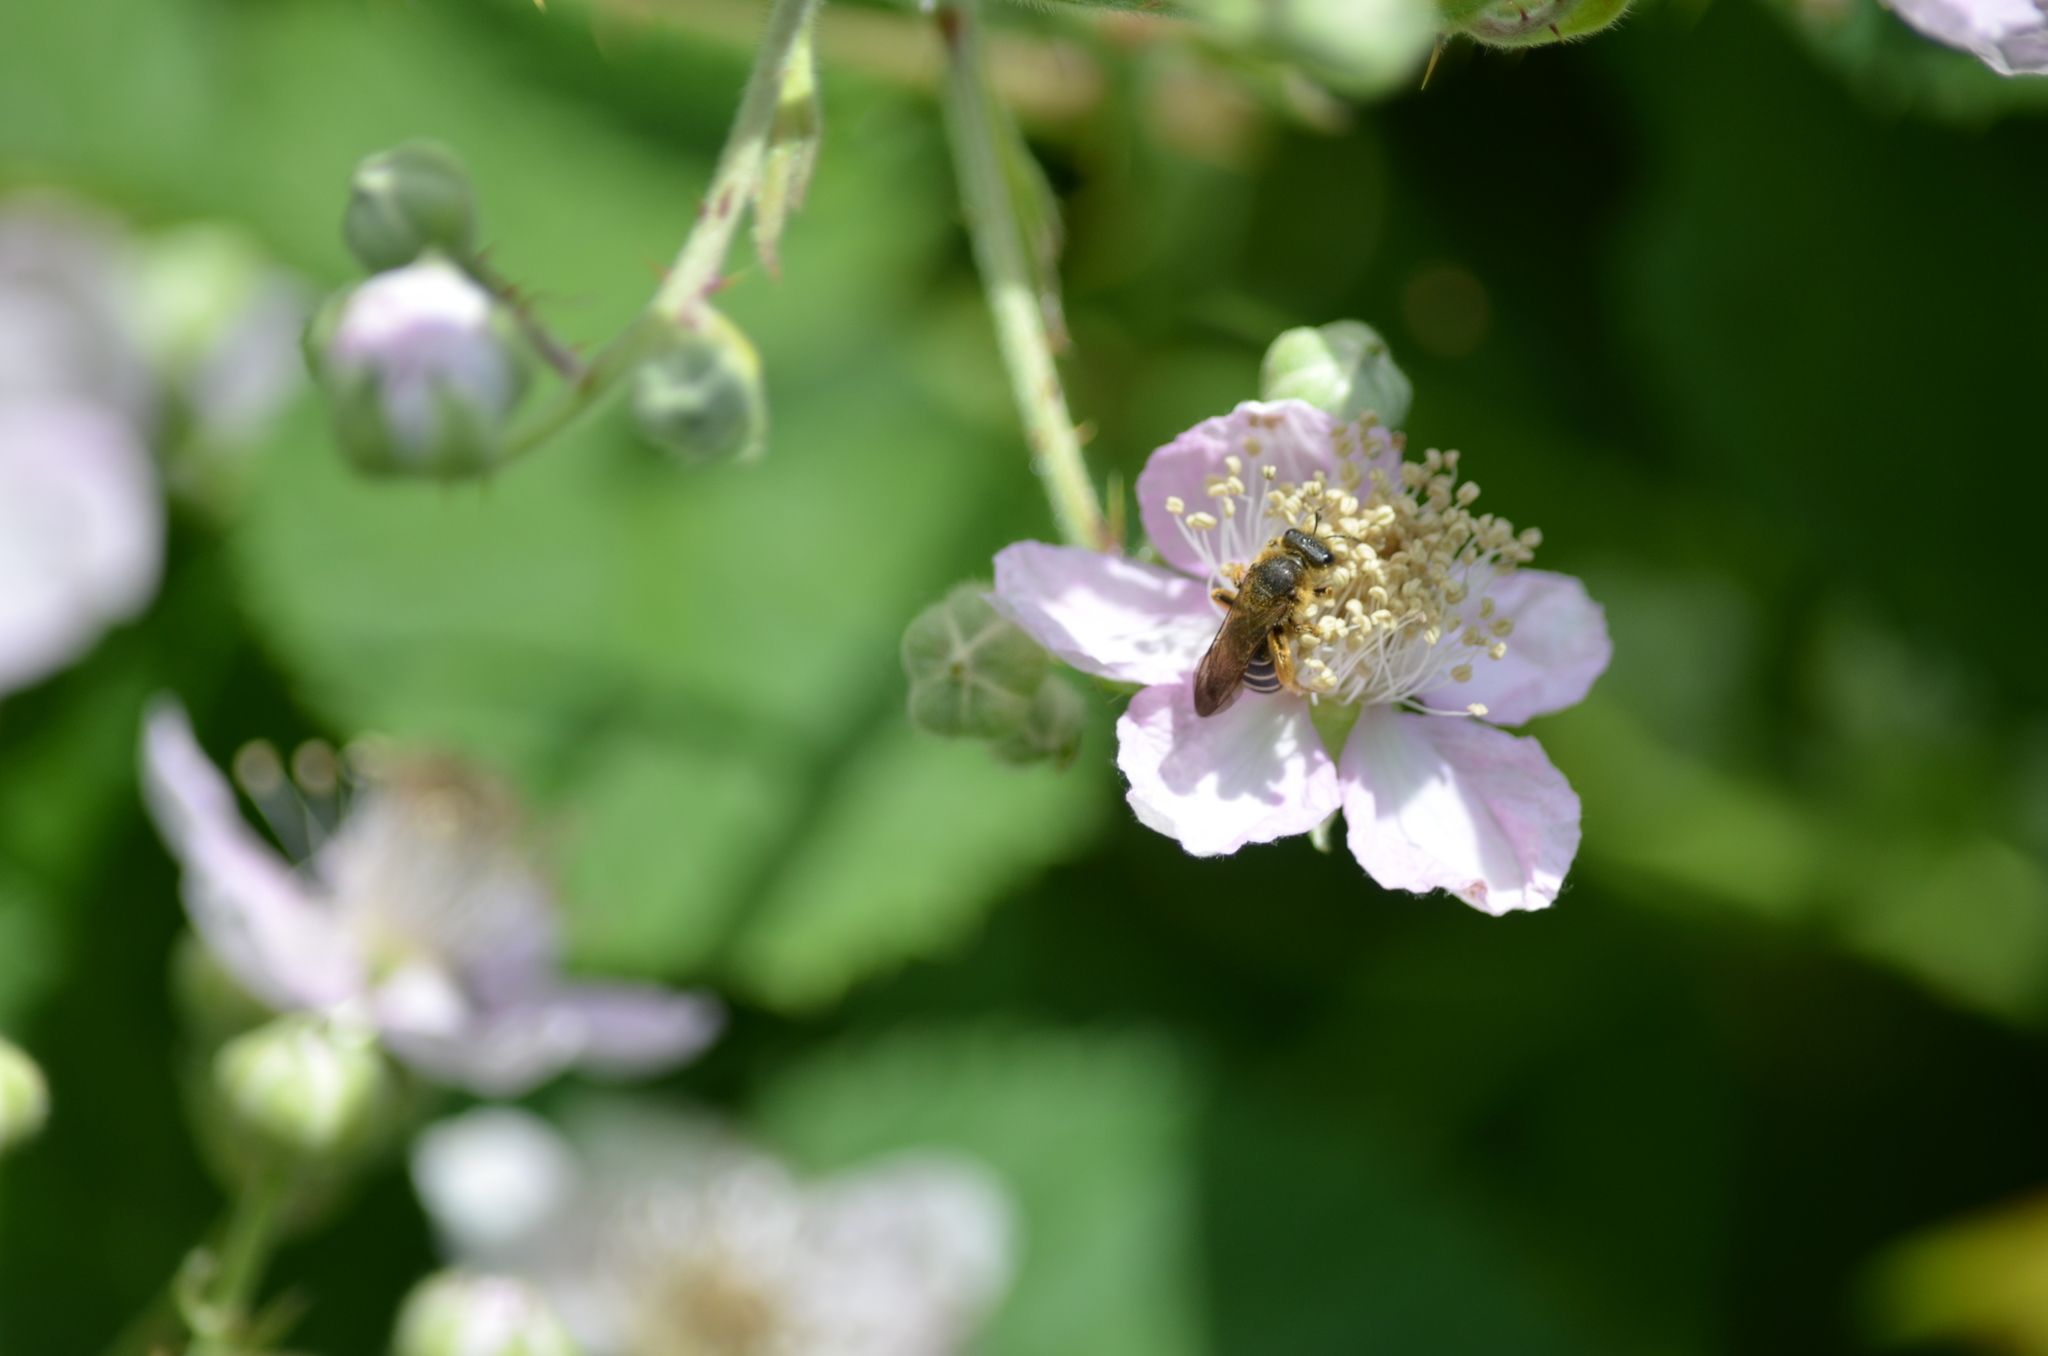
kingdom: Animalia
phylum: Arthropoda
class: Insecta
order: Hymenoptera
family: Halictidae
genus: Halictus
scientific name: Halictus rubicundus
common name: Orange-legged furrow bee
